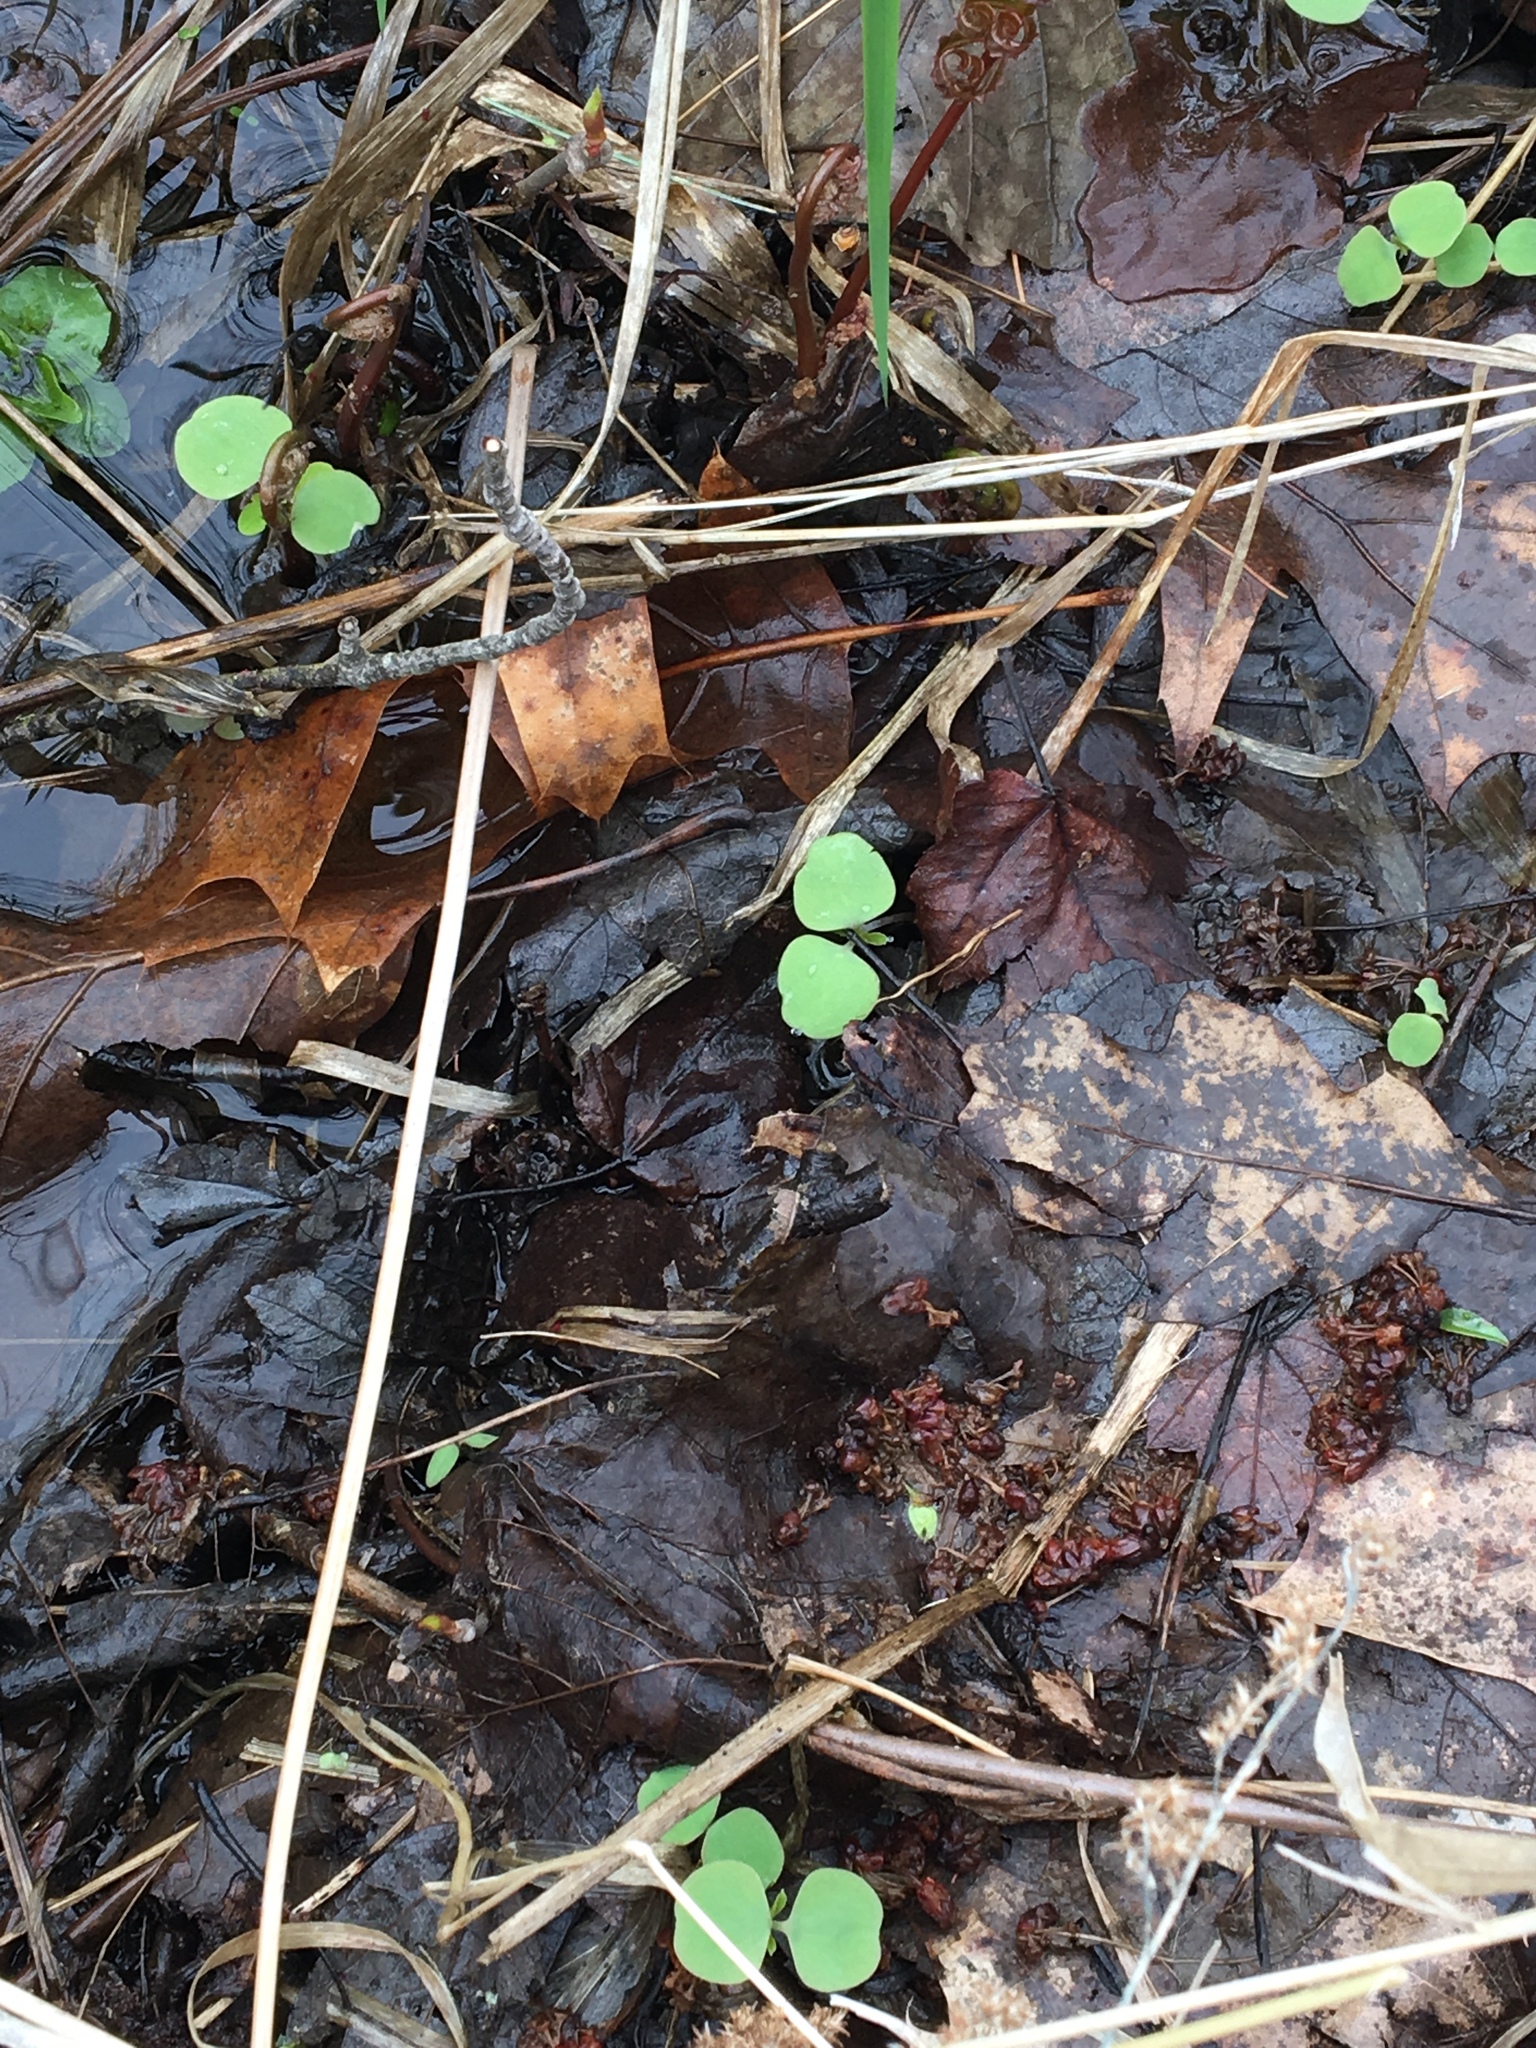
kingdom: Plantae
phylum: Tracheophyta
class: Magnoliopsida
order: Ericales
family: Balsaminaceae
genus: Impatiens
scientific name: Impatiens capensis
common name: Orange balsam
